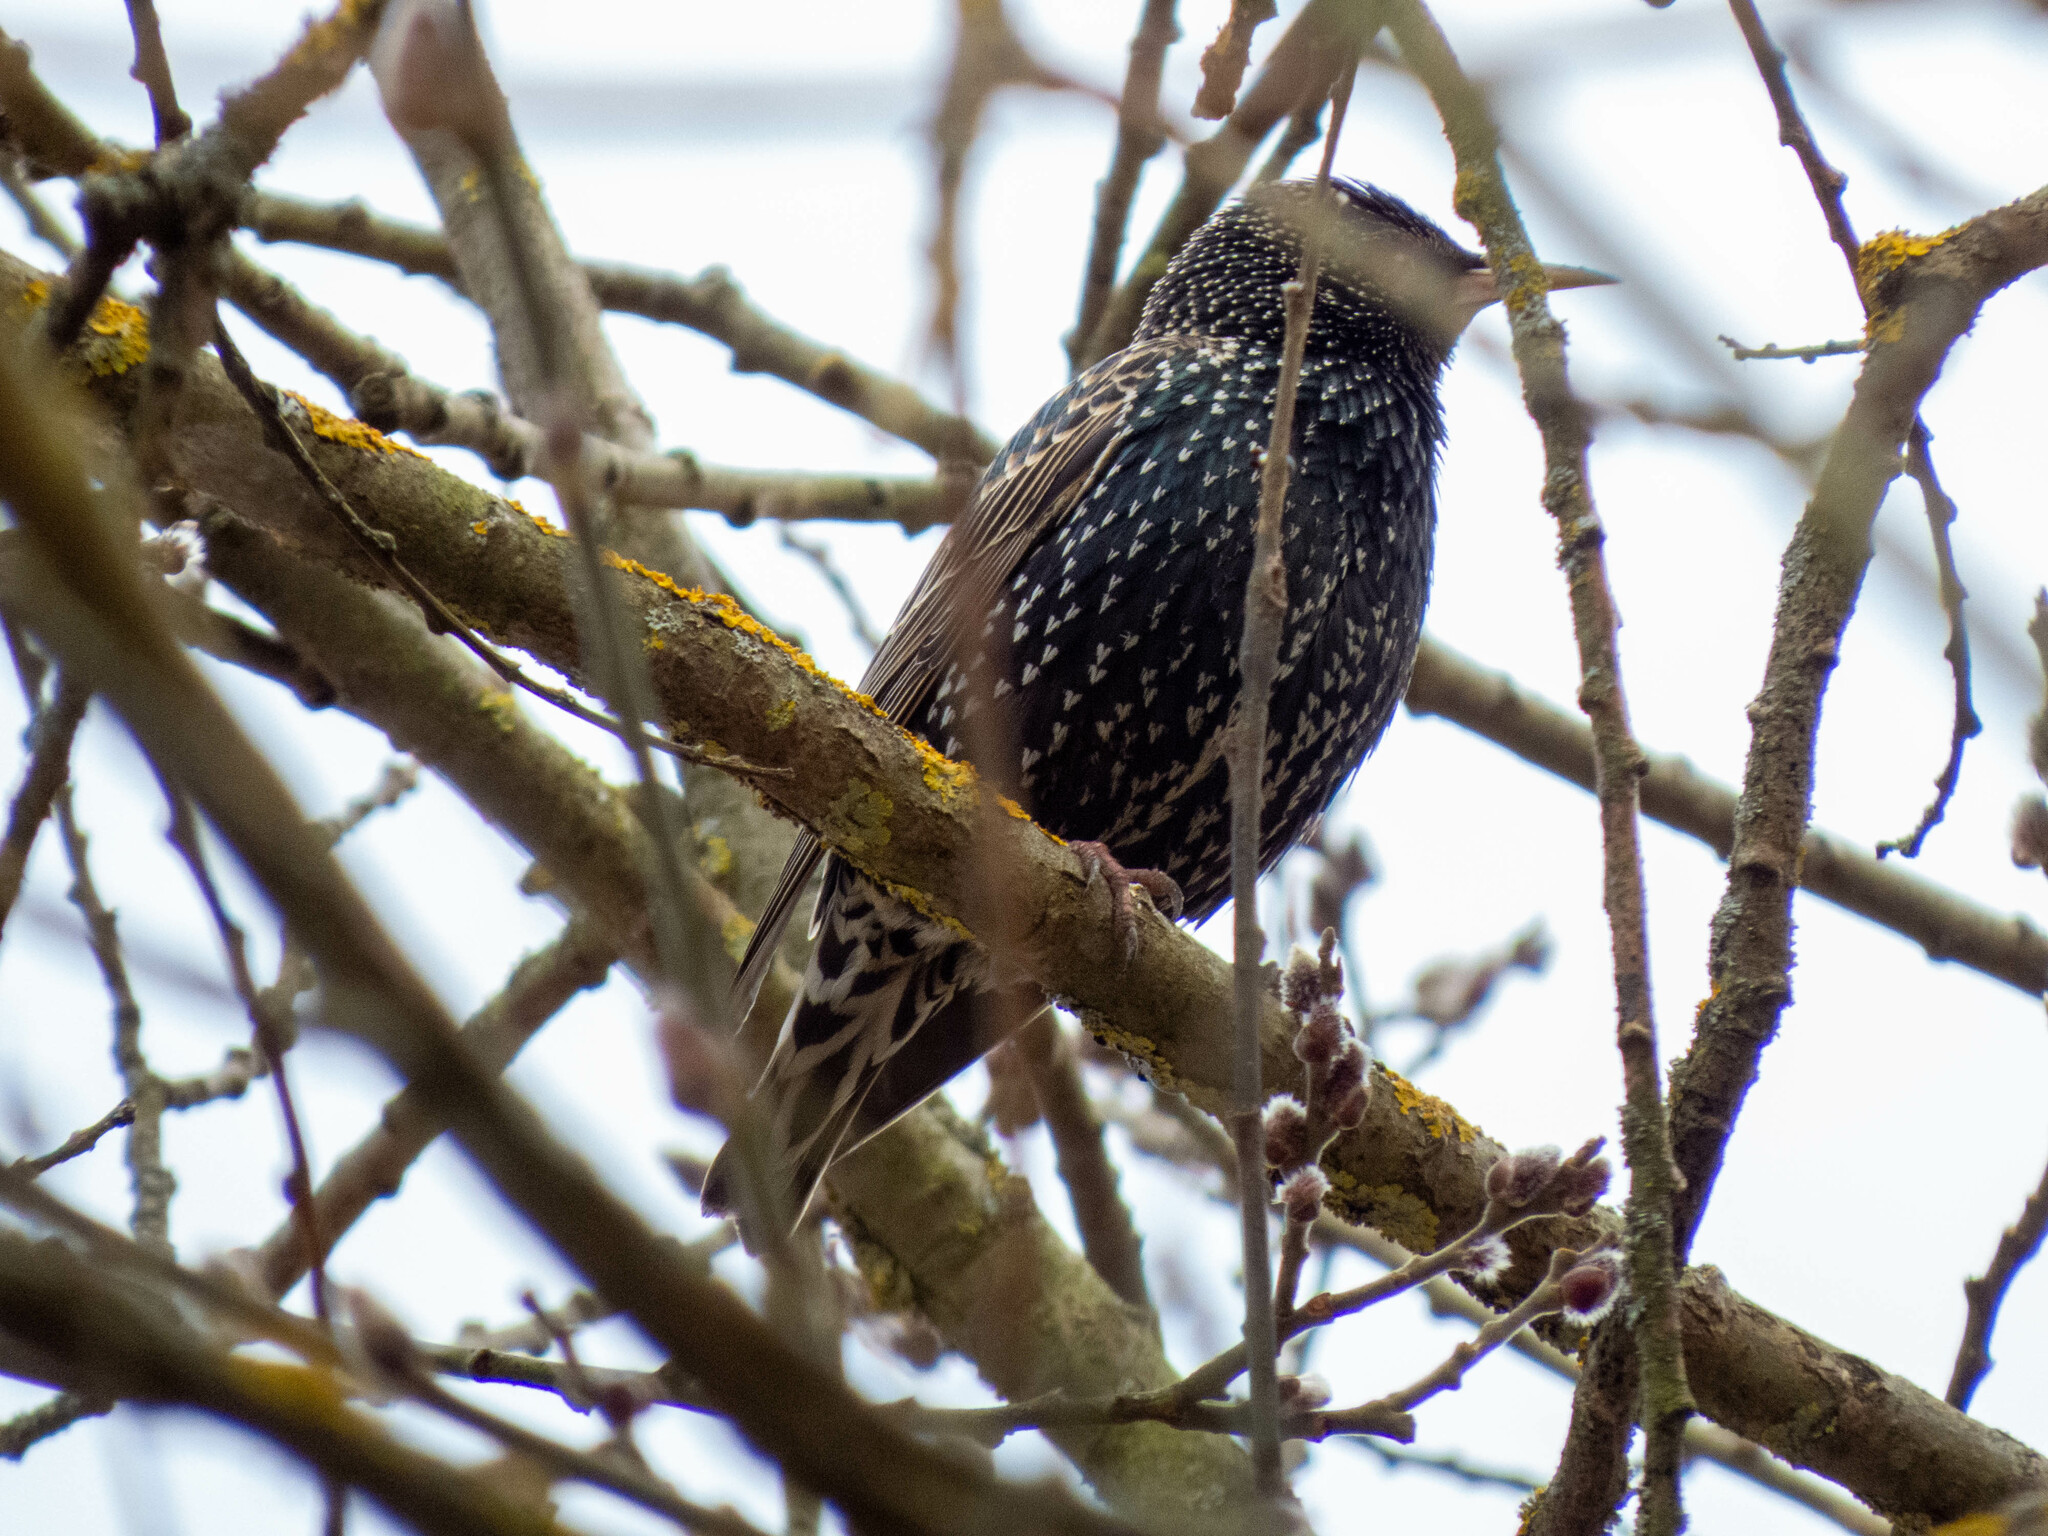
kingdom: Animalia
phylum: Chordata
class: Aves
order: Passeriformes
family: Sturnidae
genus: Sturnus
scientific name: Sturnus vulgaris
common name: Common starling
